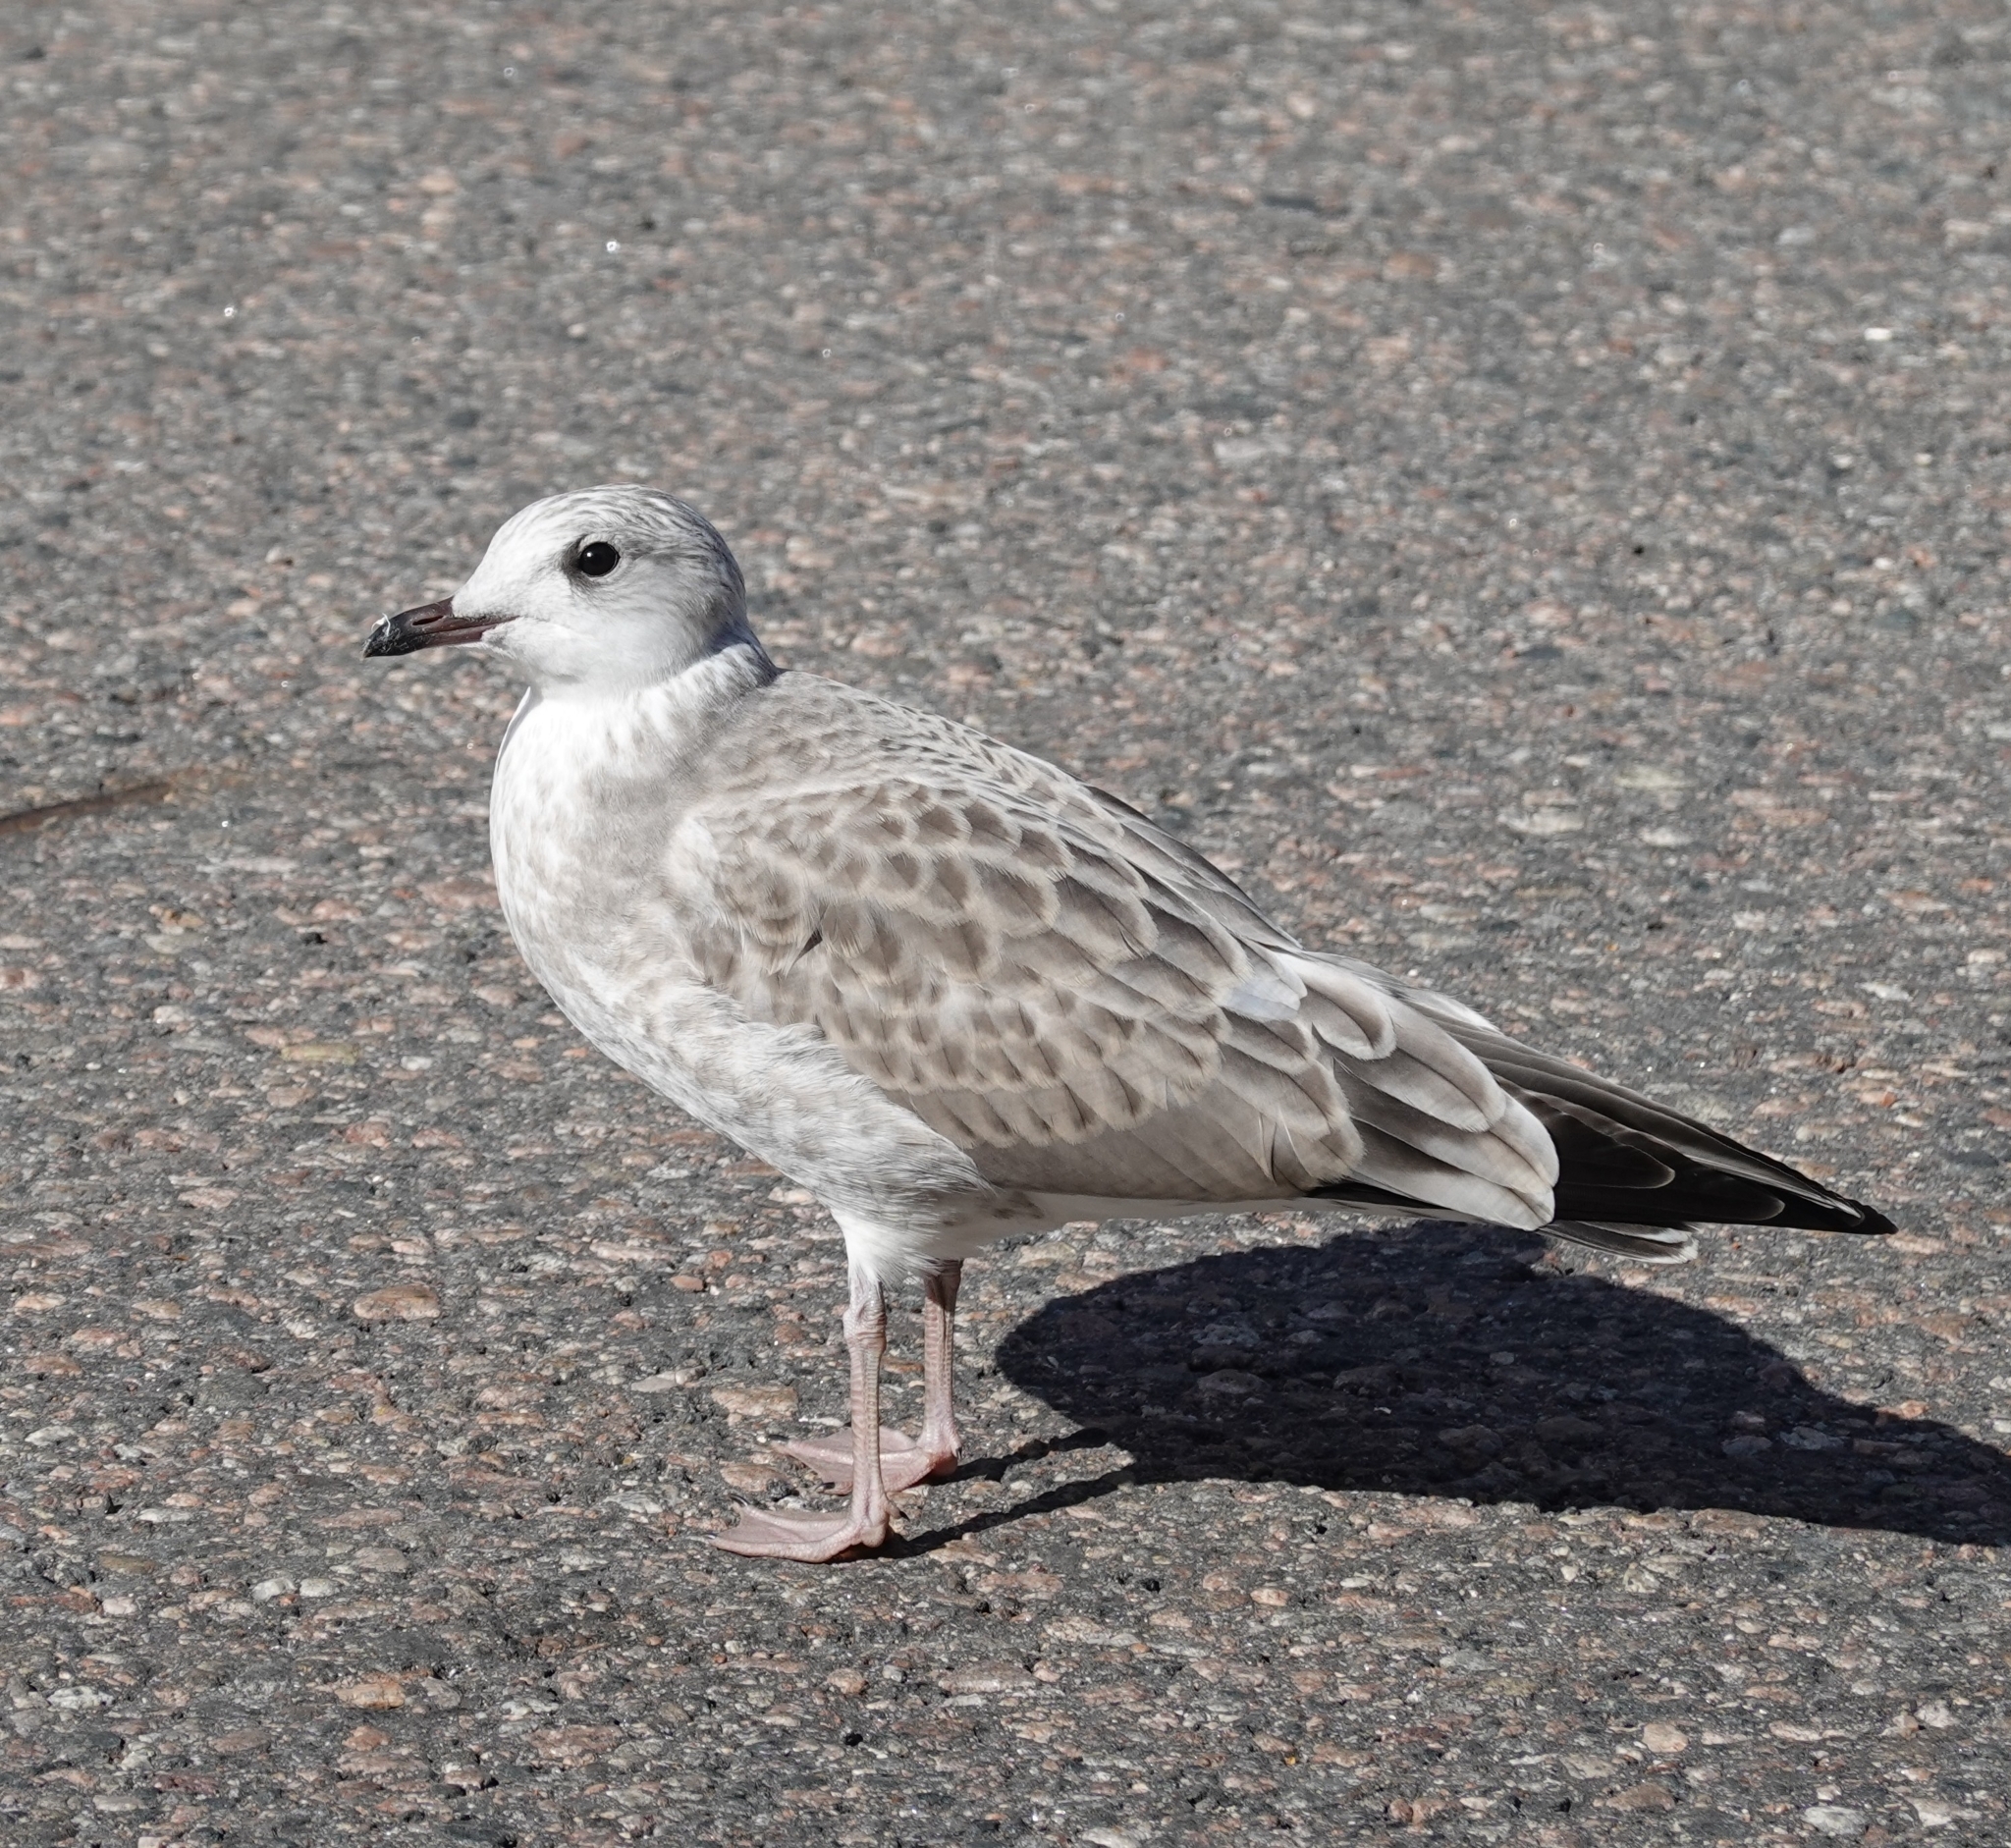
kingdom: Animalia
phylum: Chordata
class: Aves
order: Charadriiformes
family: Laridae
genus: Larus
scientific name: Larus canus
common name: Mew gull
